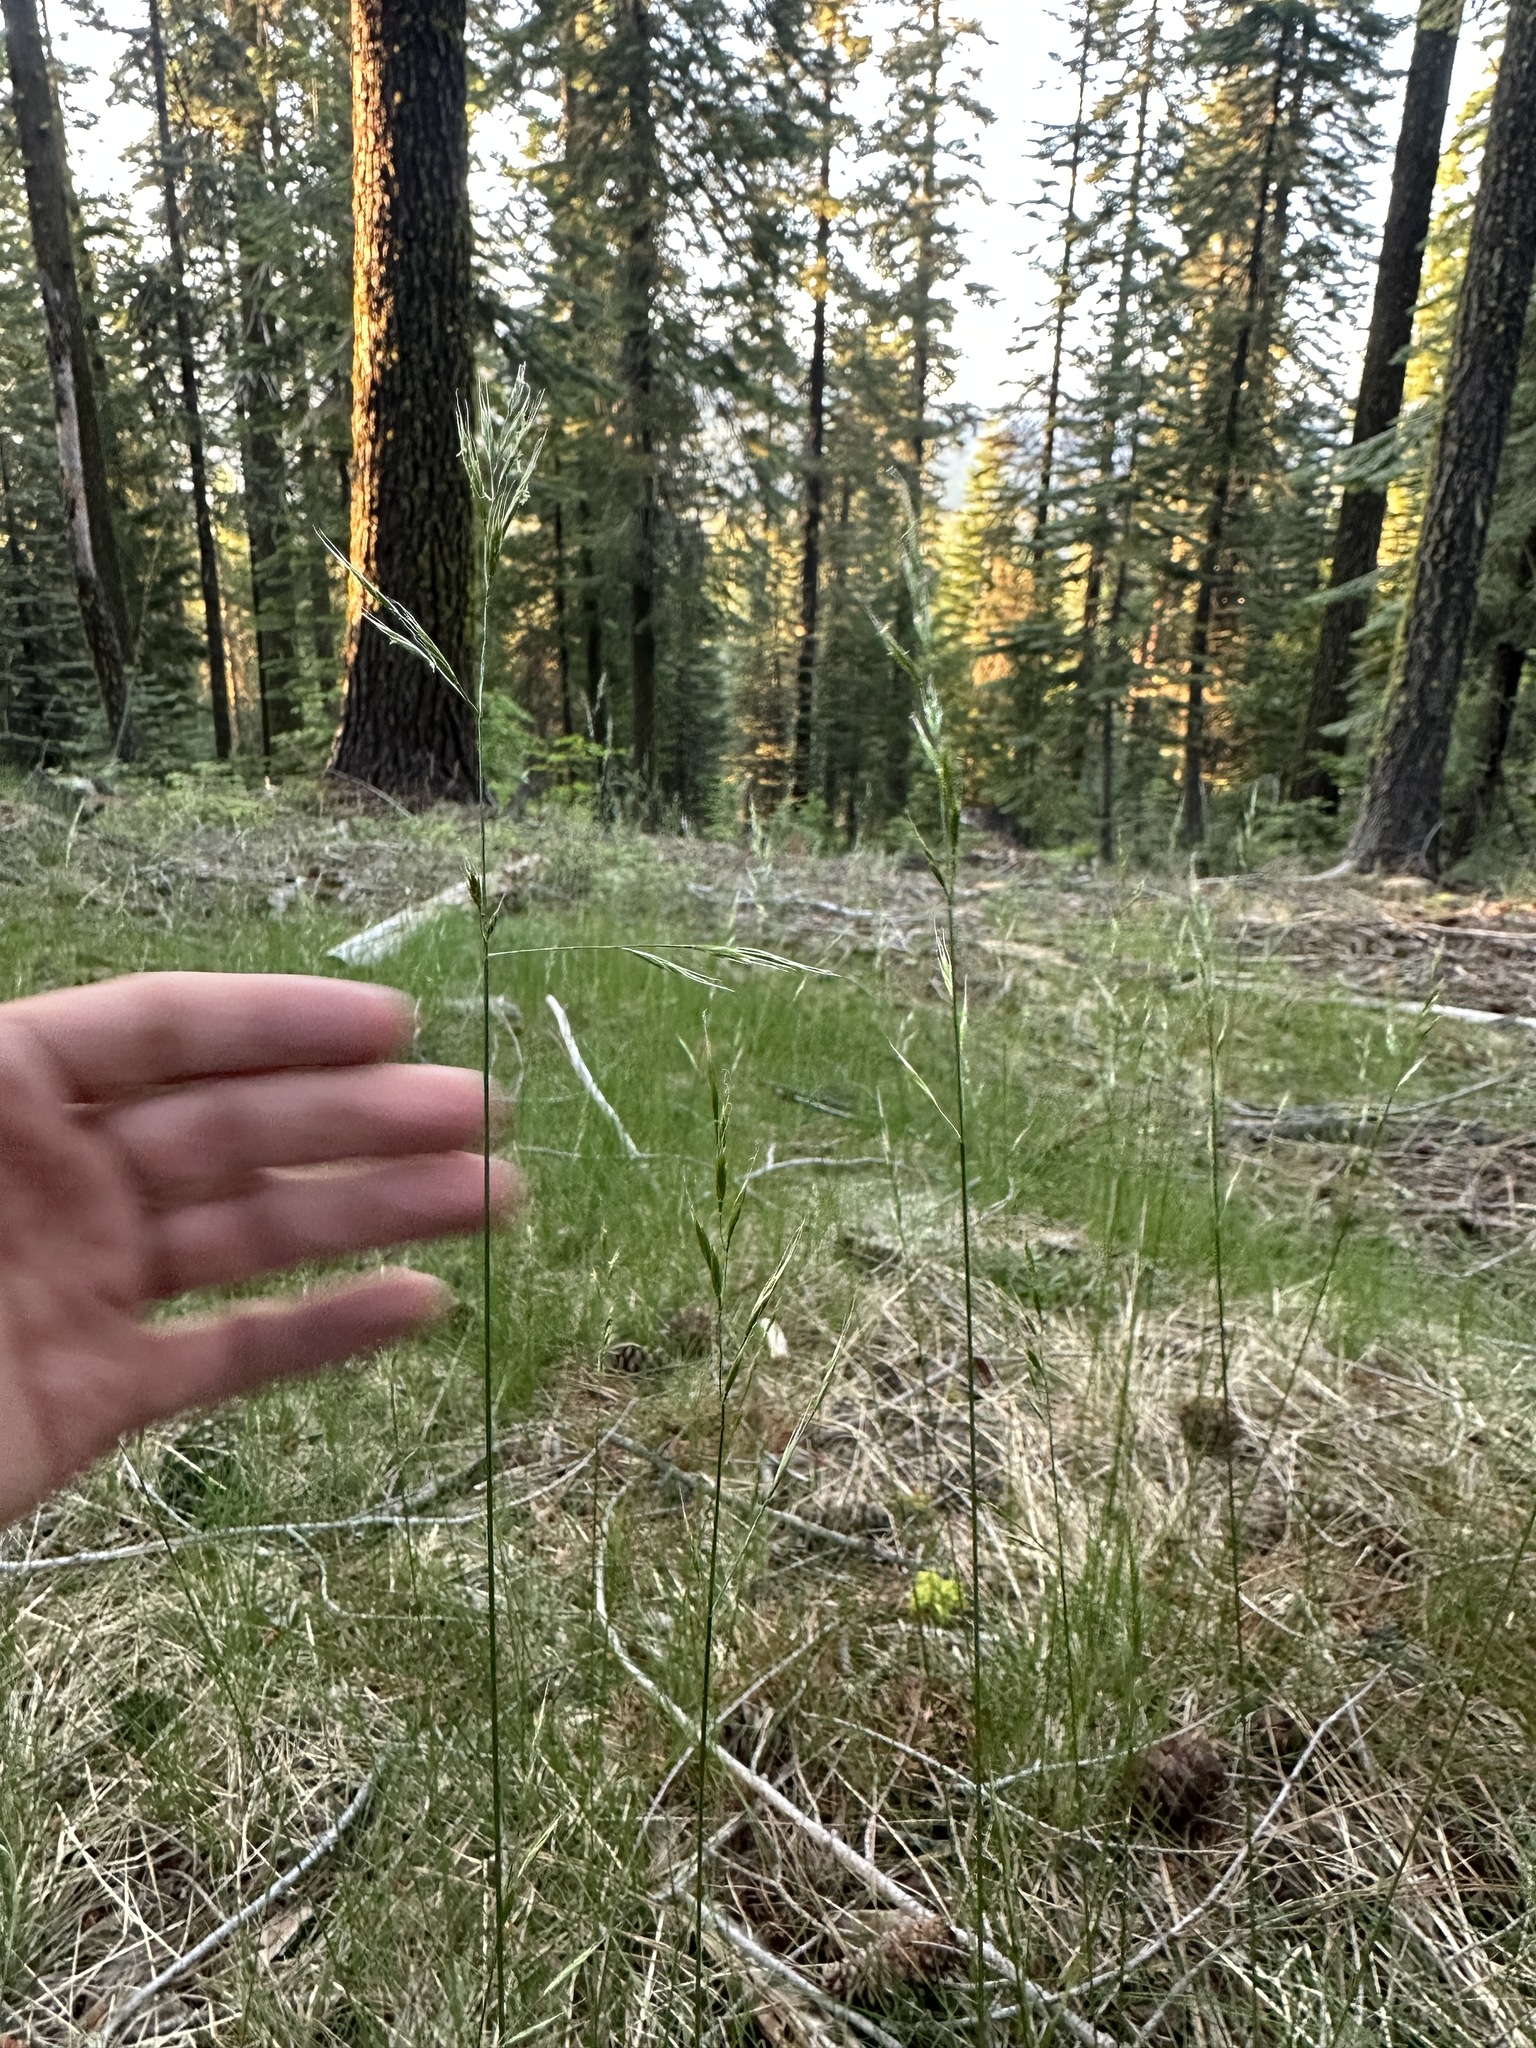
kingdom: Plantae
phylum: Tracheophyta
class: Liliopsida
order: Poales
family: Poaceae
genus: Festuca
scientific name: Festuca occidentalis
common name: Western fescue
